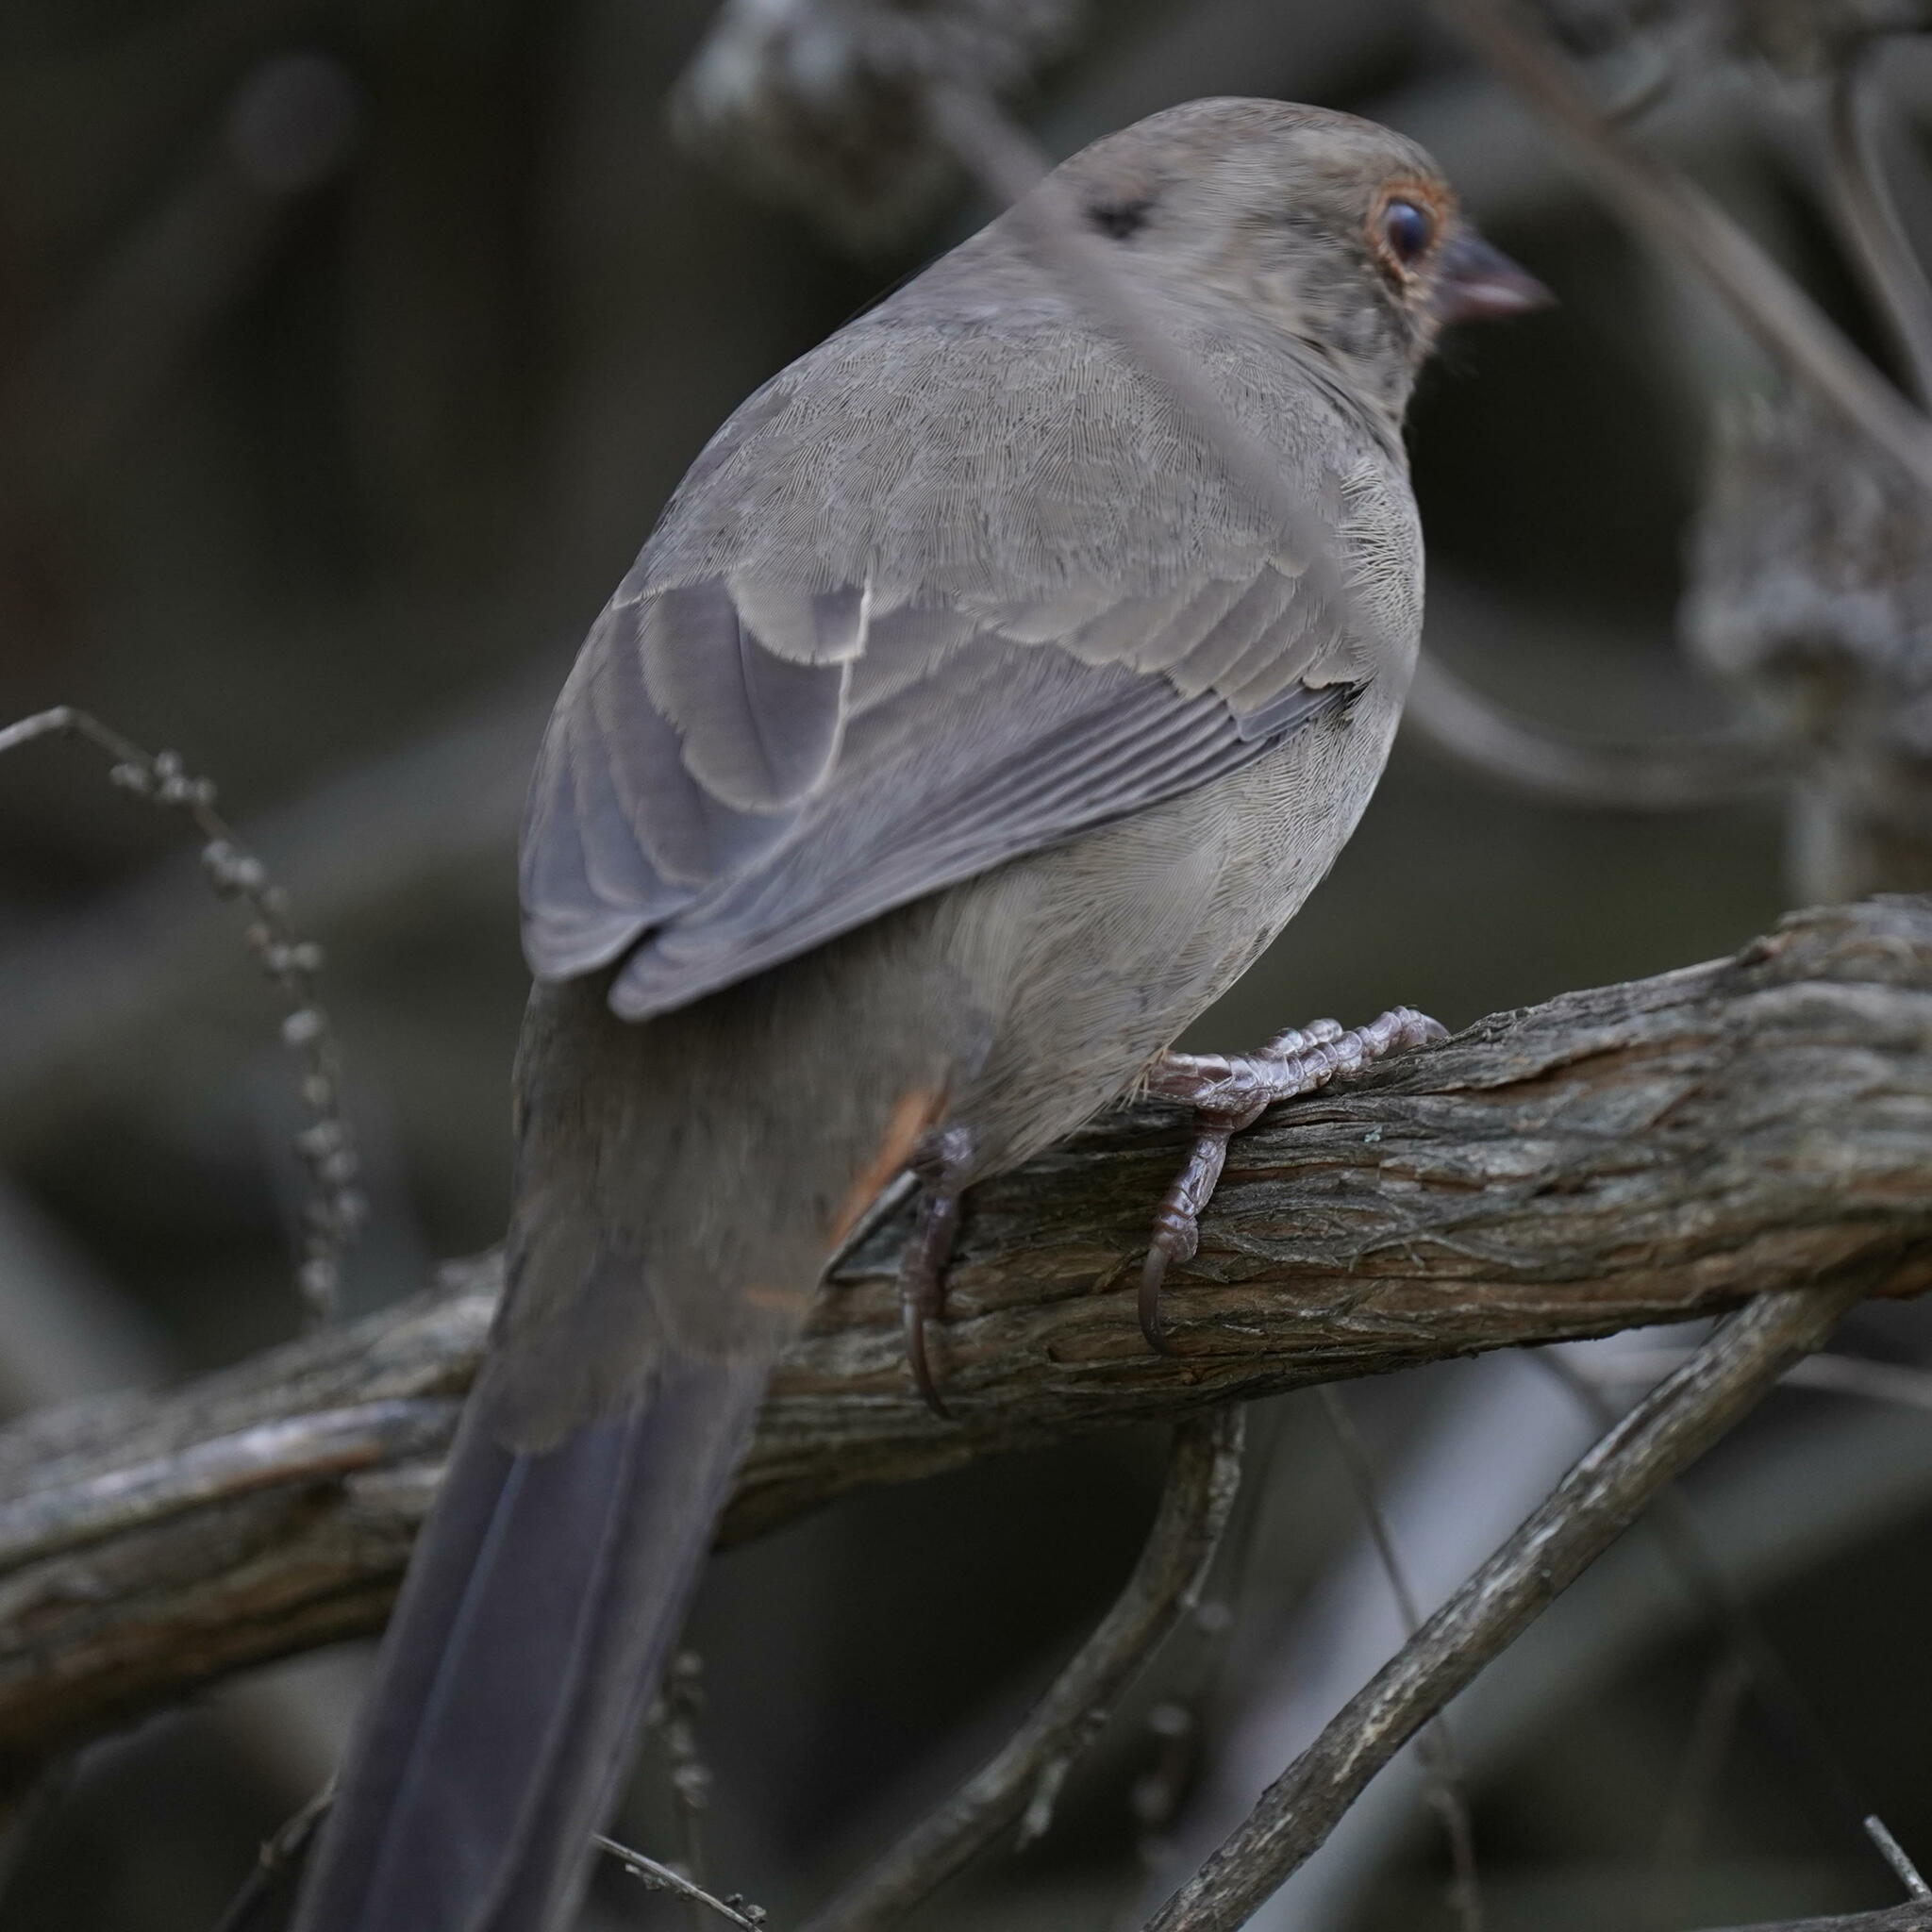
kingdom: Animalia
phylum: Chordata
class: Aves
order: Passeriformes
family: Passerellidae
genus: Melozone
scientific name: Melozone crissalis
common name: California towhee
